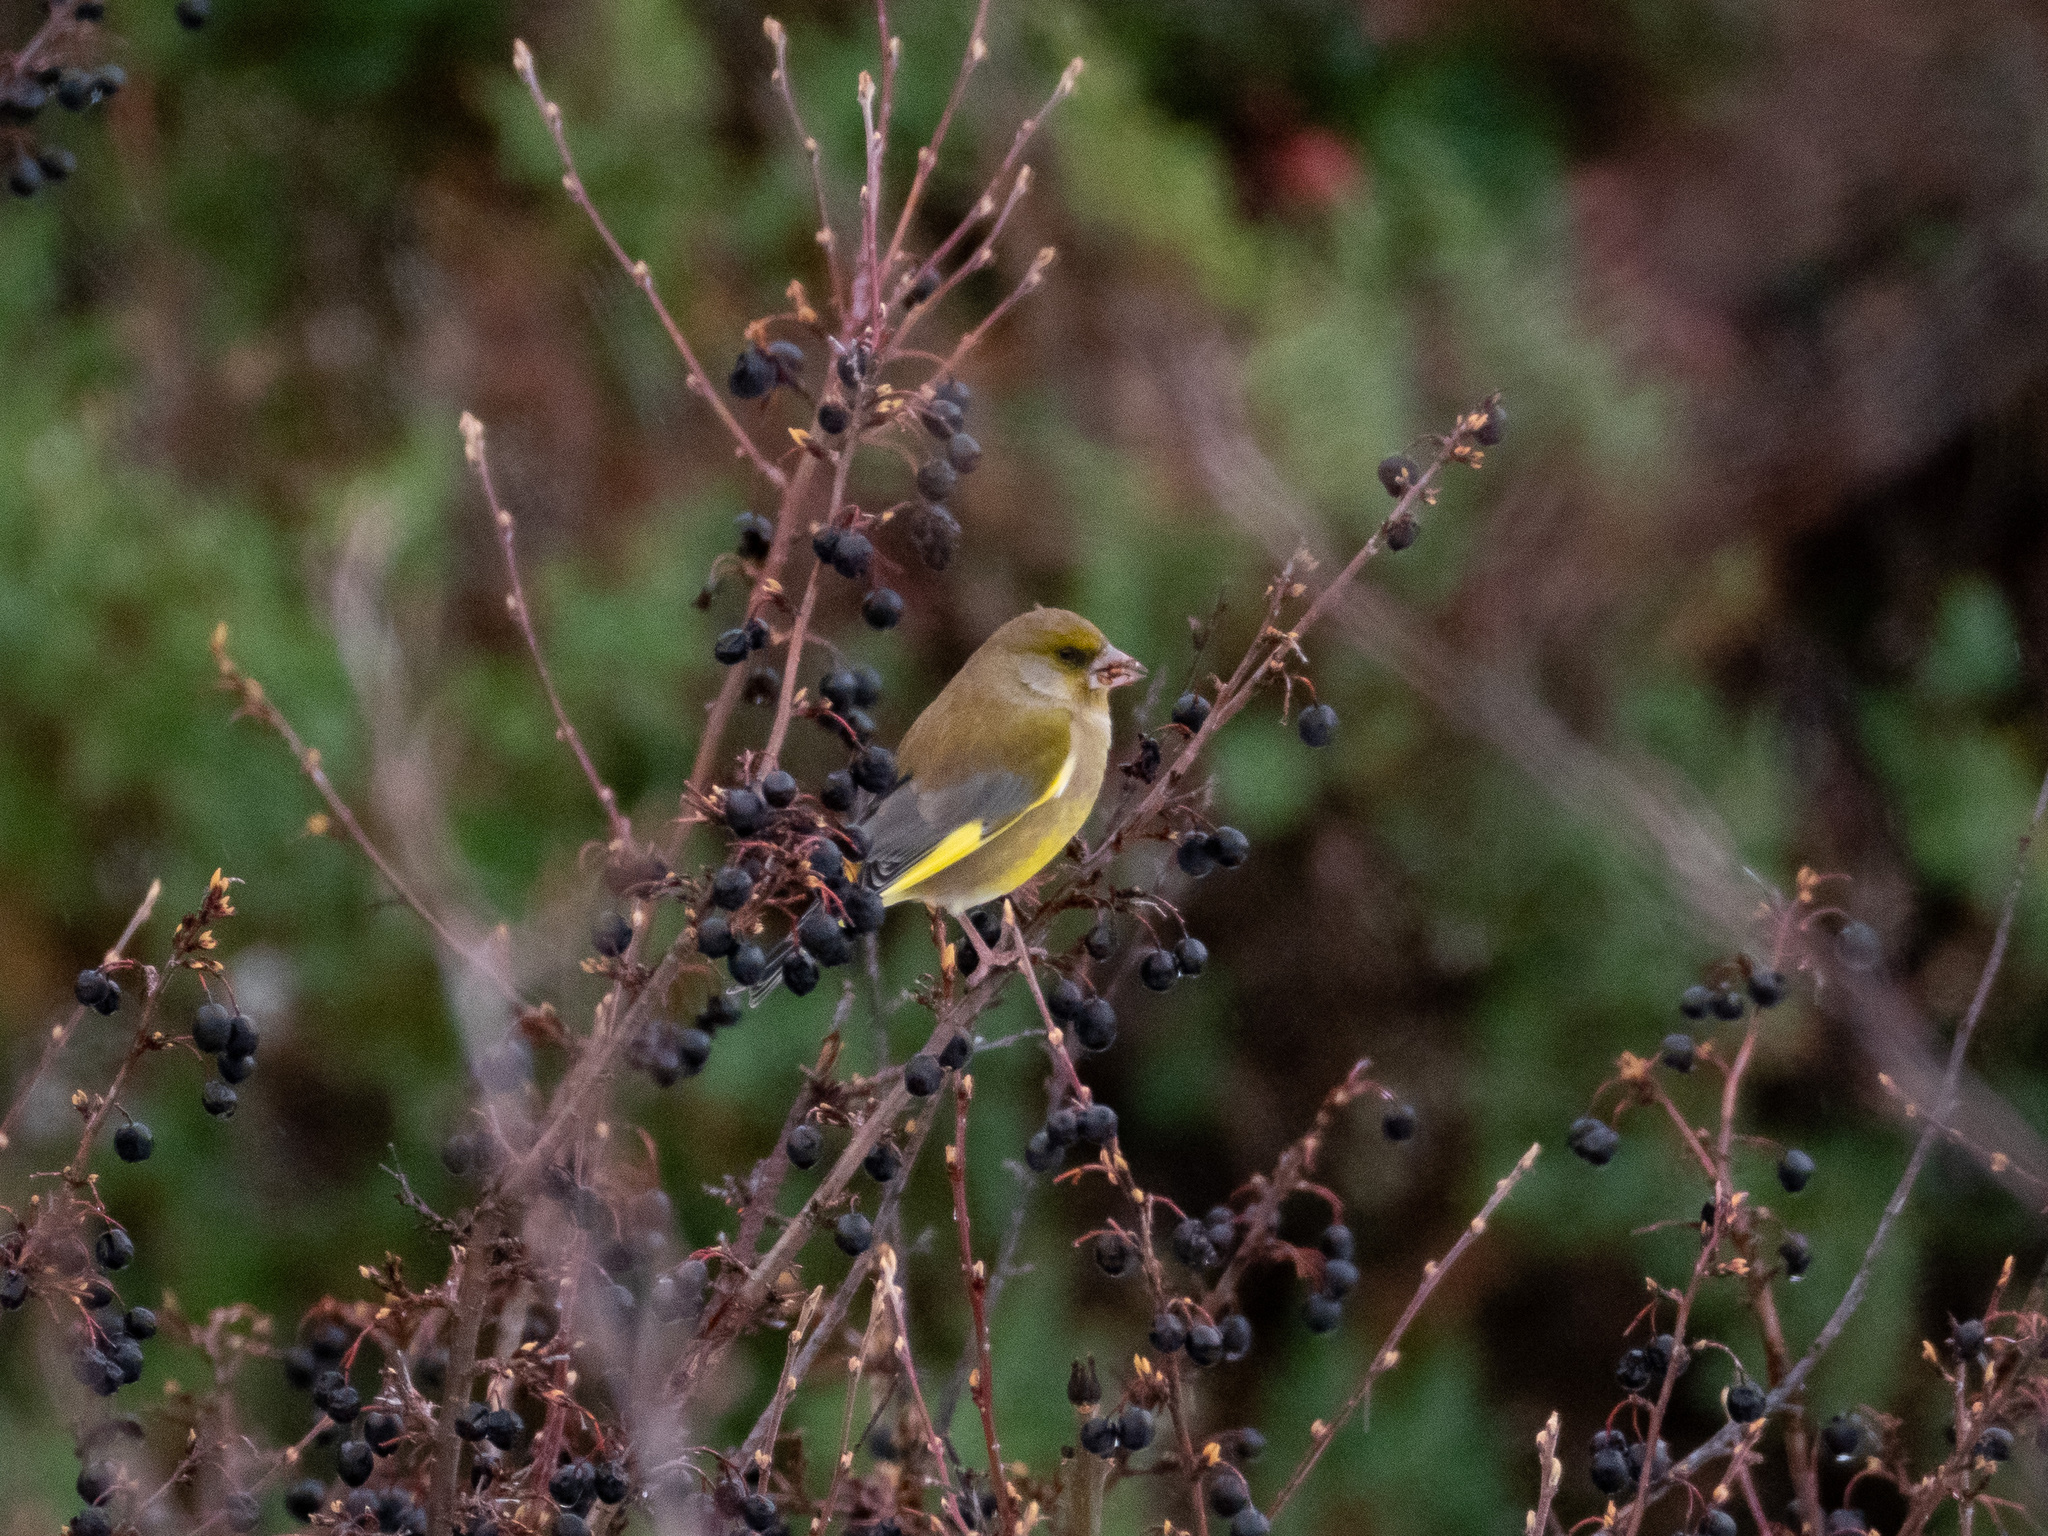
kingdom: Plantae
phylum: Tracheophyta
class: Liliopsida
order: Poales
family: Poaceae
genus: Chloris
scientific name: Chloris chloris
